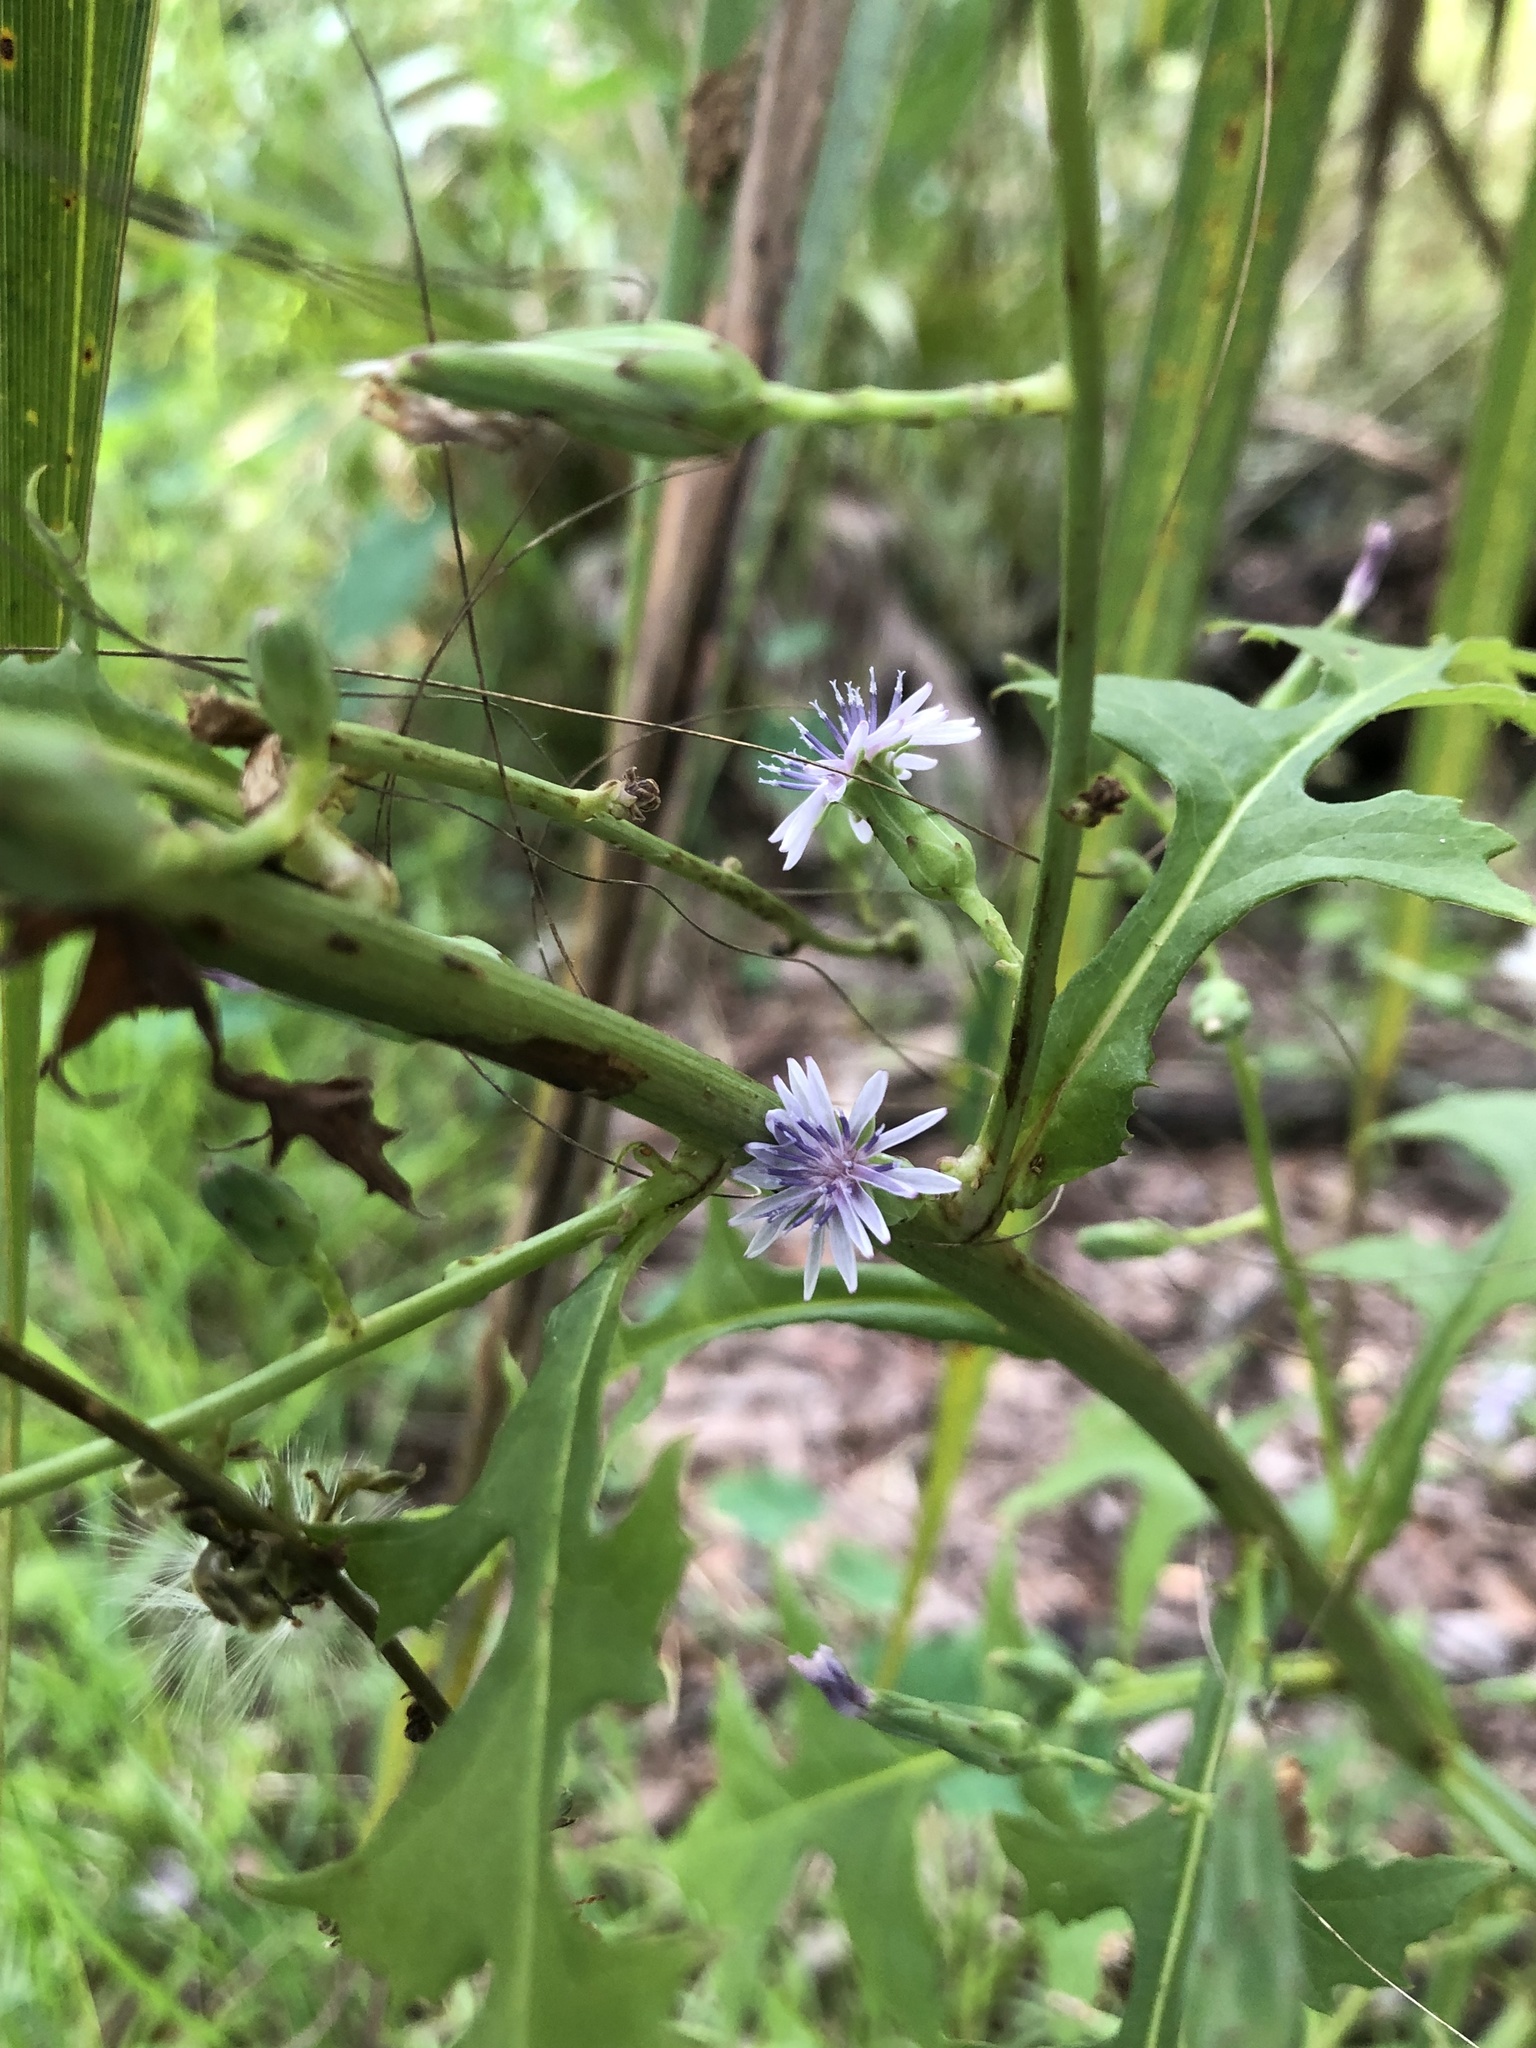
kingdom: Plantae
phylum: Tracheophyta
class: Magnoliopsida
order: Asterales
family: Asteraceae
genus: Lactuca
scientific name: Lactuca floridana
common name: Woodland lettuce
